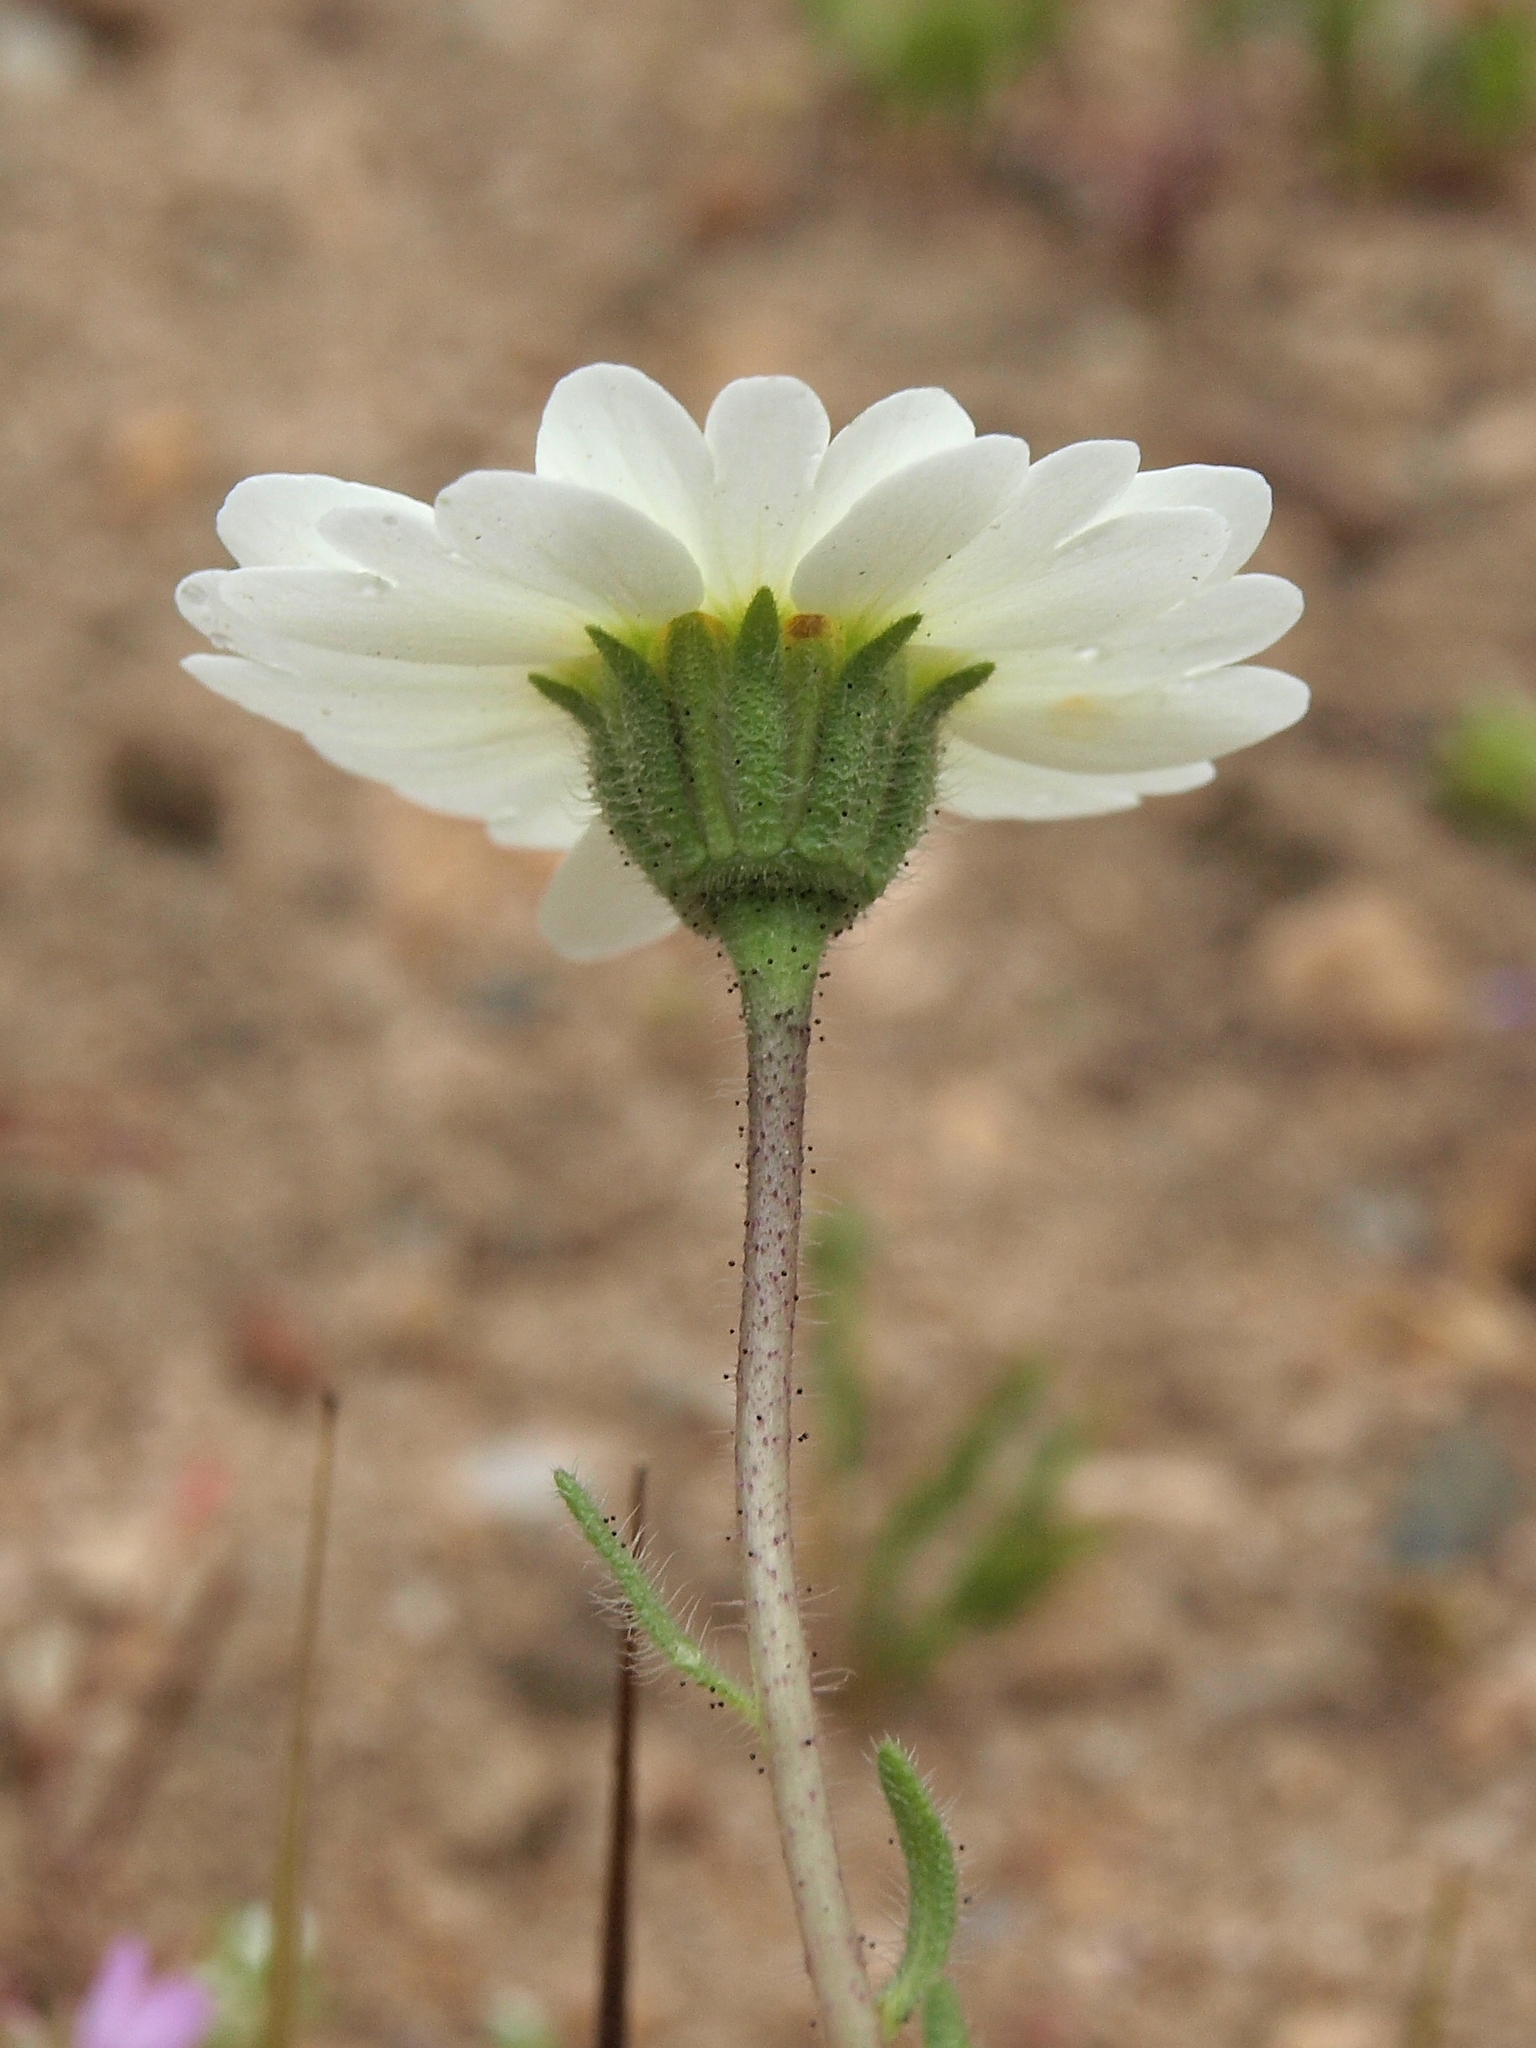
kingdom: Plantae
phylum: Tracheophyta
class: Magnoliopsida
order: Asterales
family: Asteraceae
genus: Layia
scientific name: Layia glandulosa
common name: White layia
